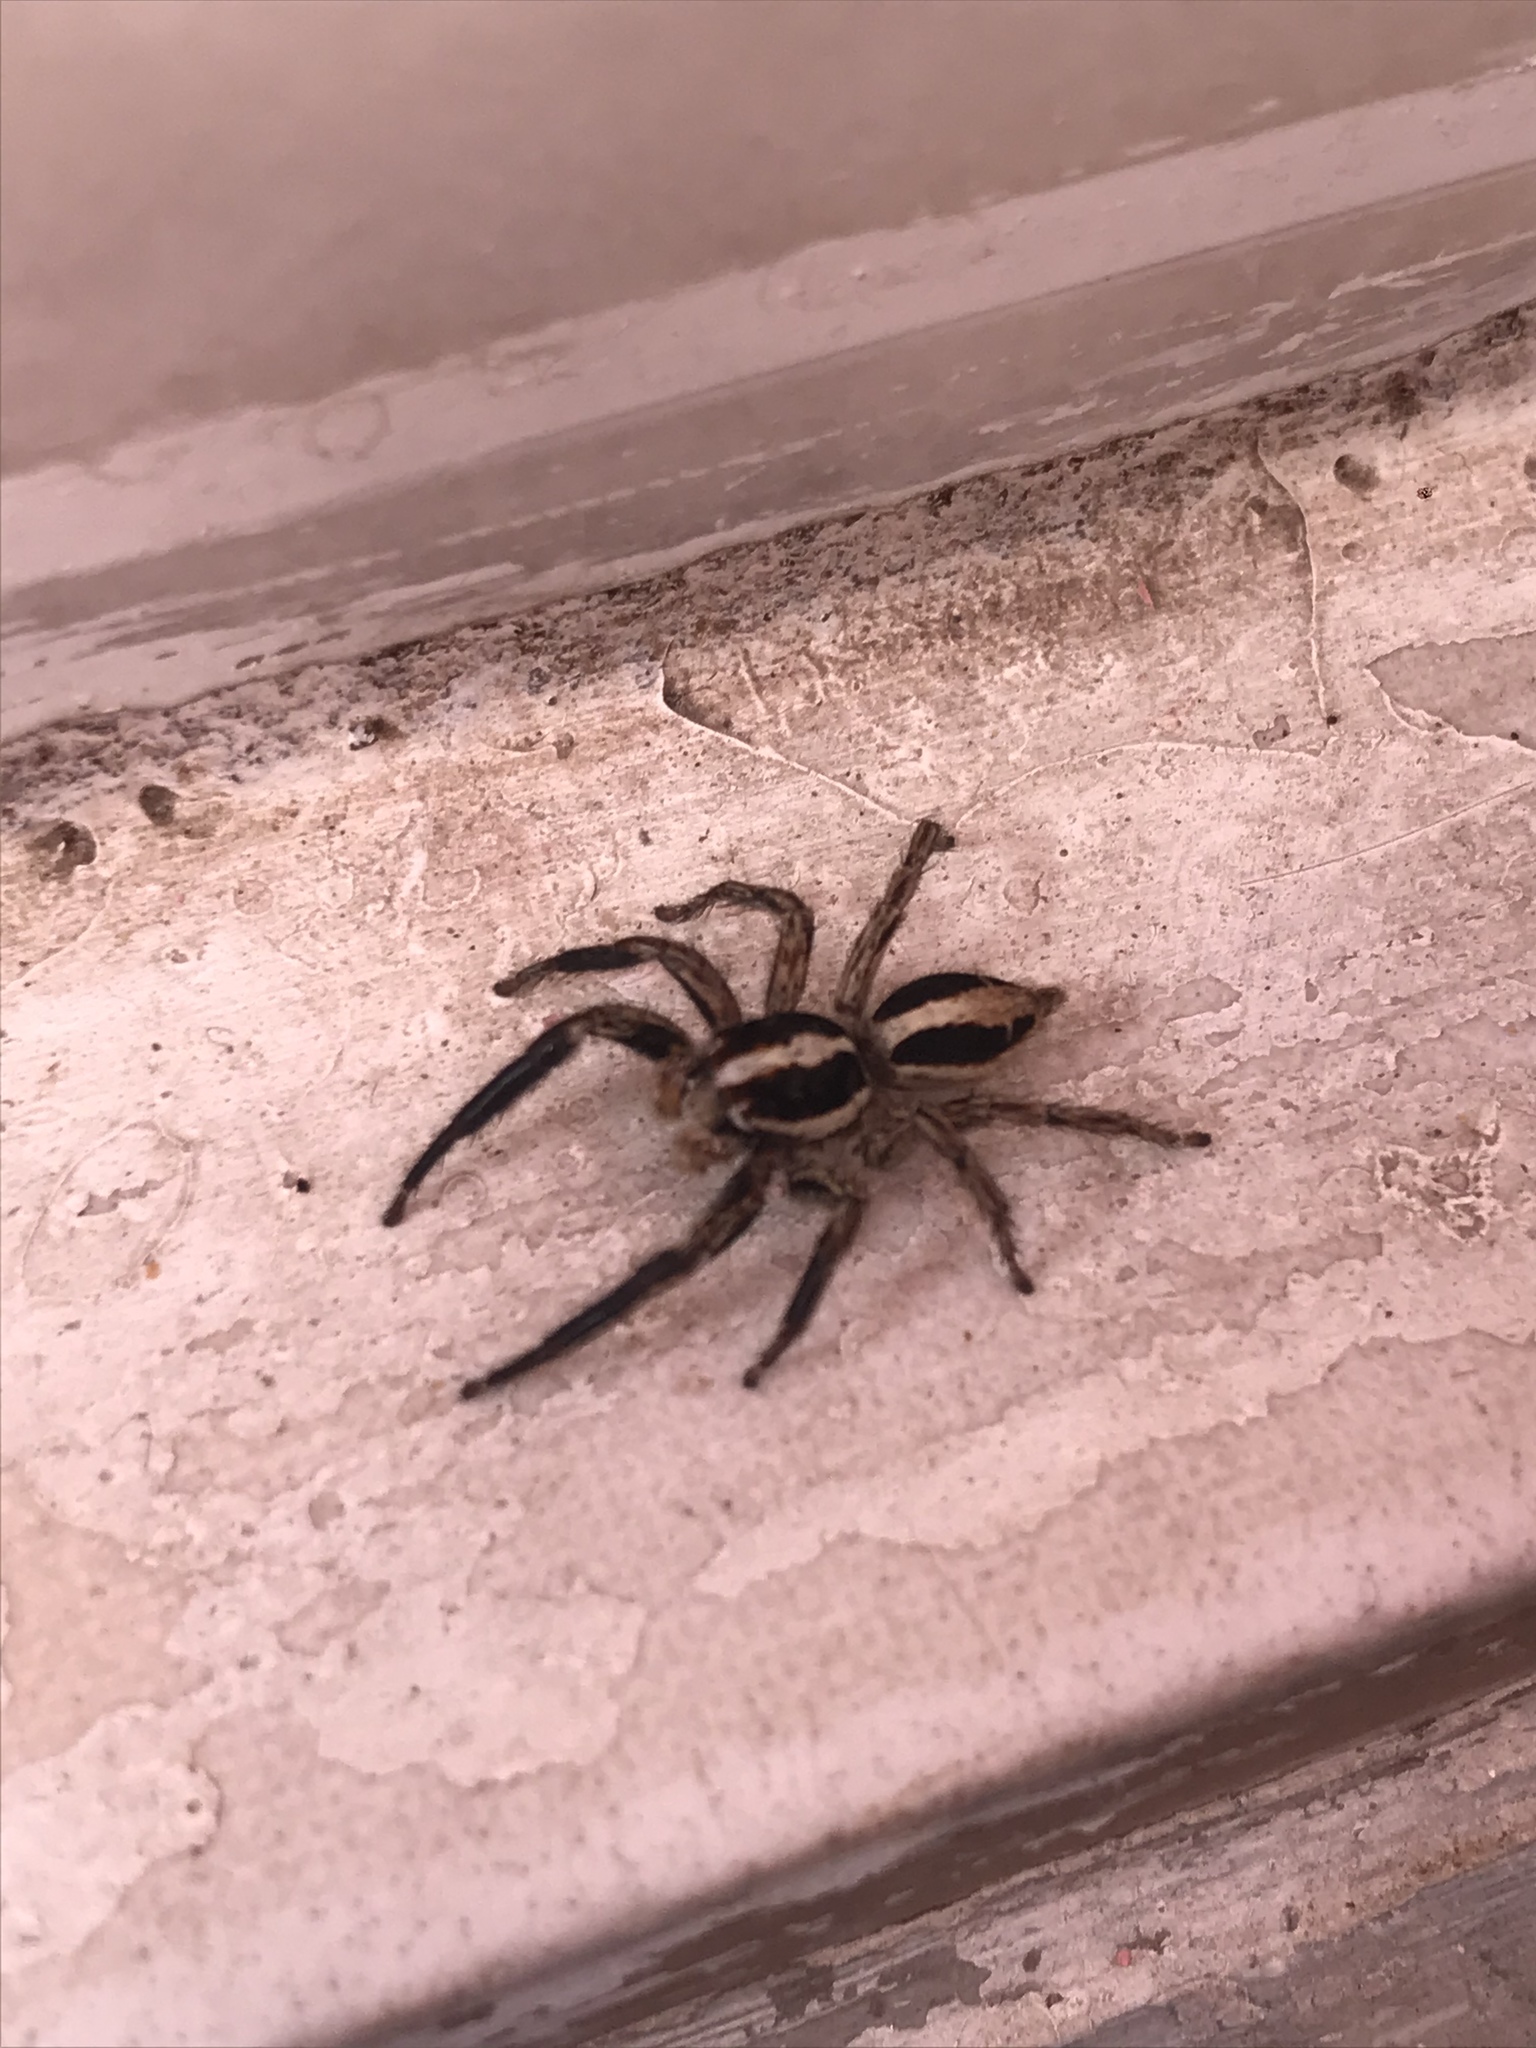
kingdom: Animalia
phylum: Arthropoda
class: Arachnida
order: Araneae
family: Salticidae
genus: Plexippus
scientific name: Plexippus paykulli
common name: Pantropical jumper
